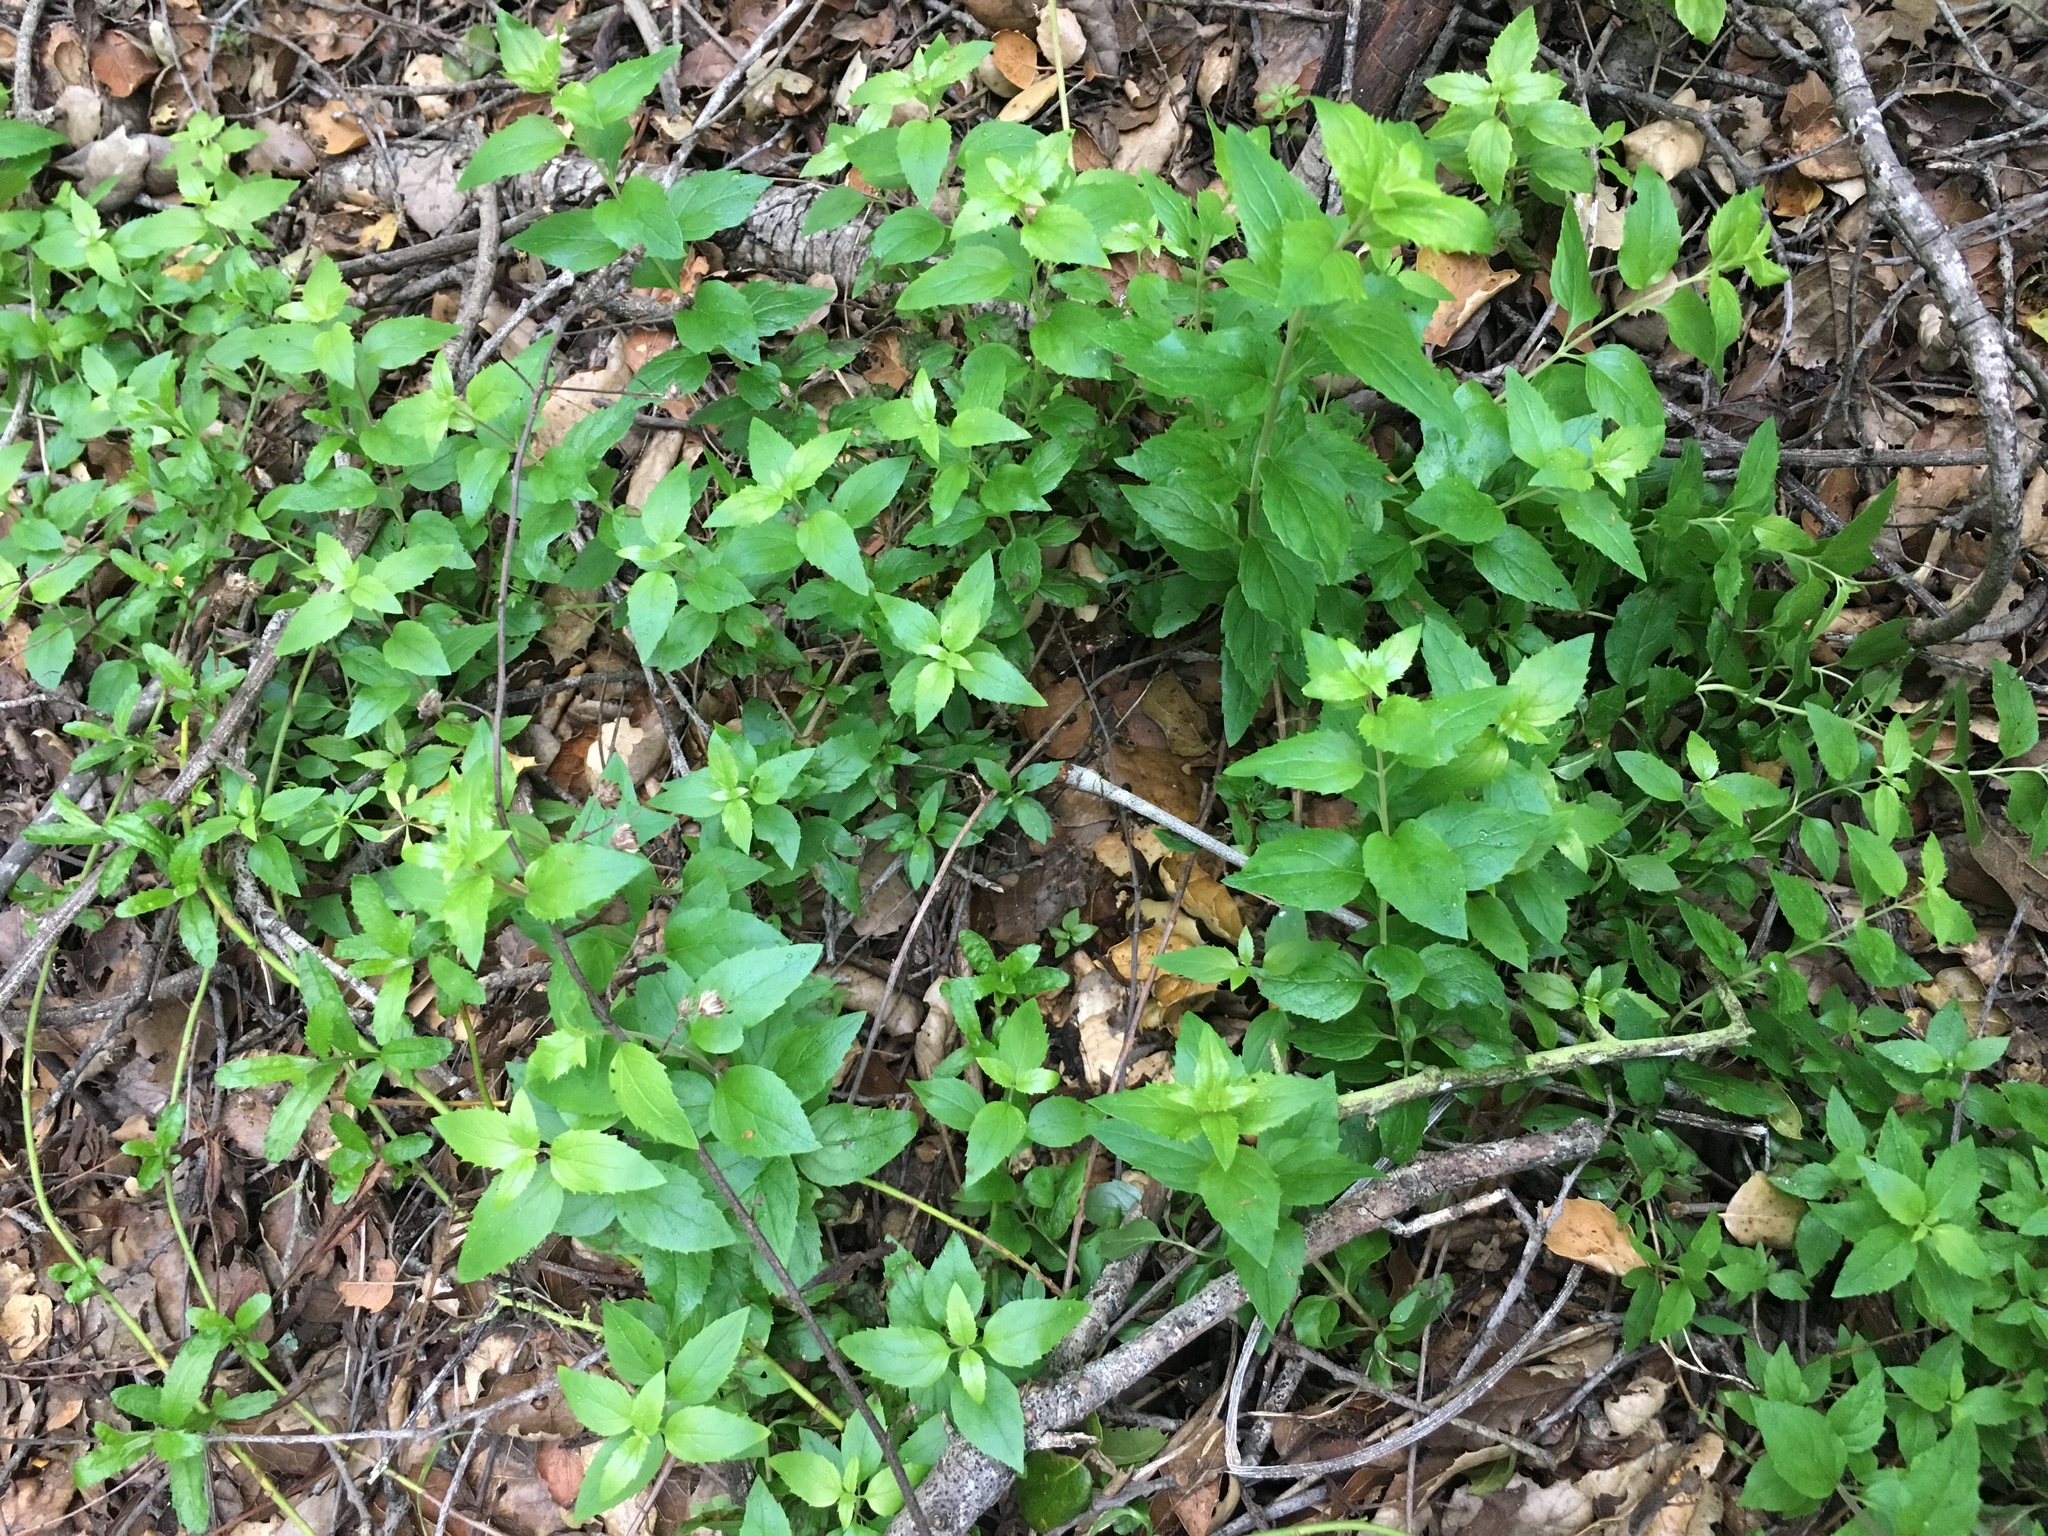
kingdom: Plantae
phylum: Tracheophyta
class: Magnoliopsida
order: Lamiales
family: Plantaginaceae
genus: Keckiella
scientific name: Keckiella cordifolia
